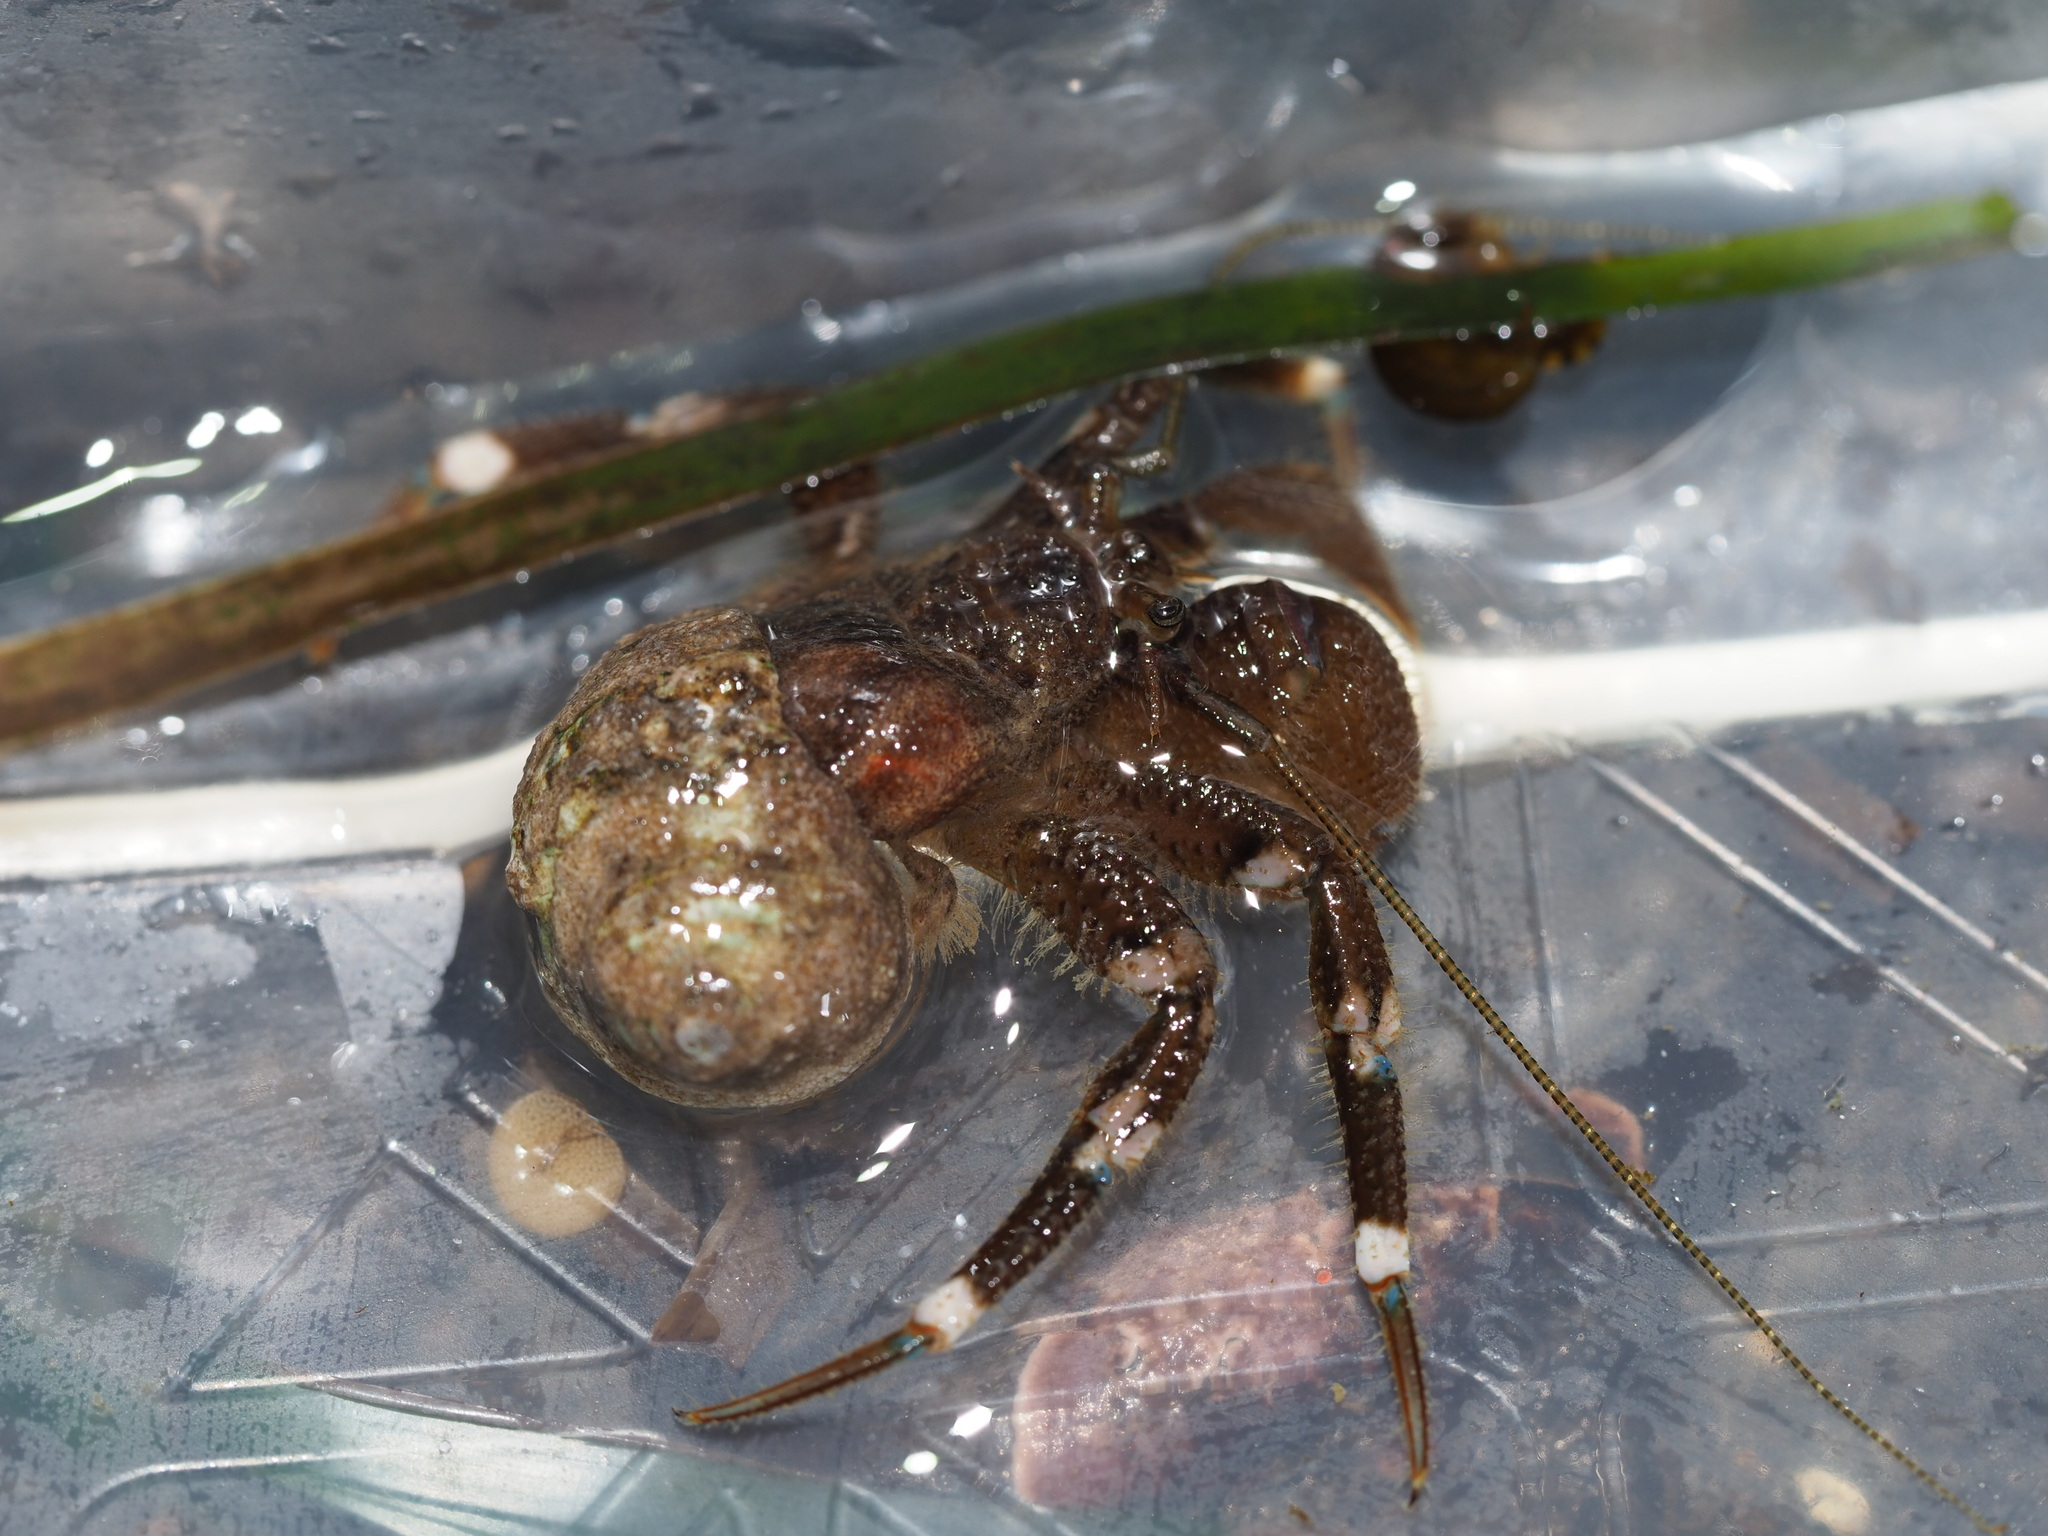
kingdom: Animalia
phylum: Arthropoda
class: Malacostraca
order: Decapoda
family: Paguridae
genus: Pagurus
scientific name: Pagurus hirsutiusculus
